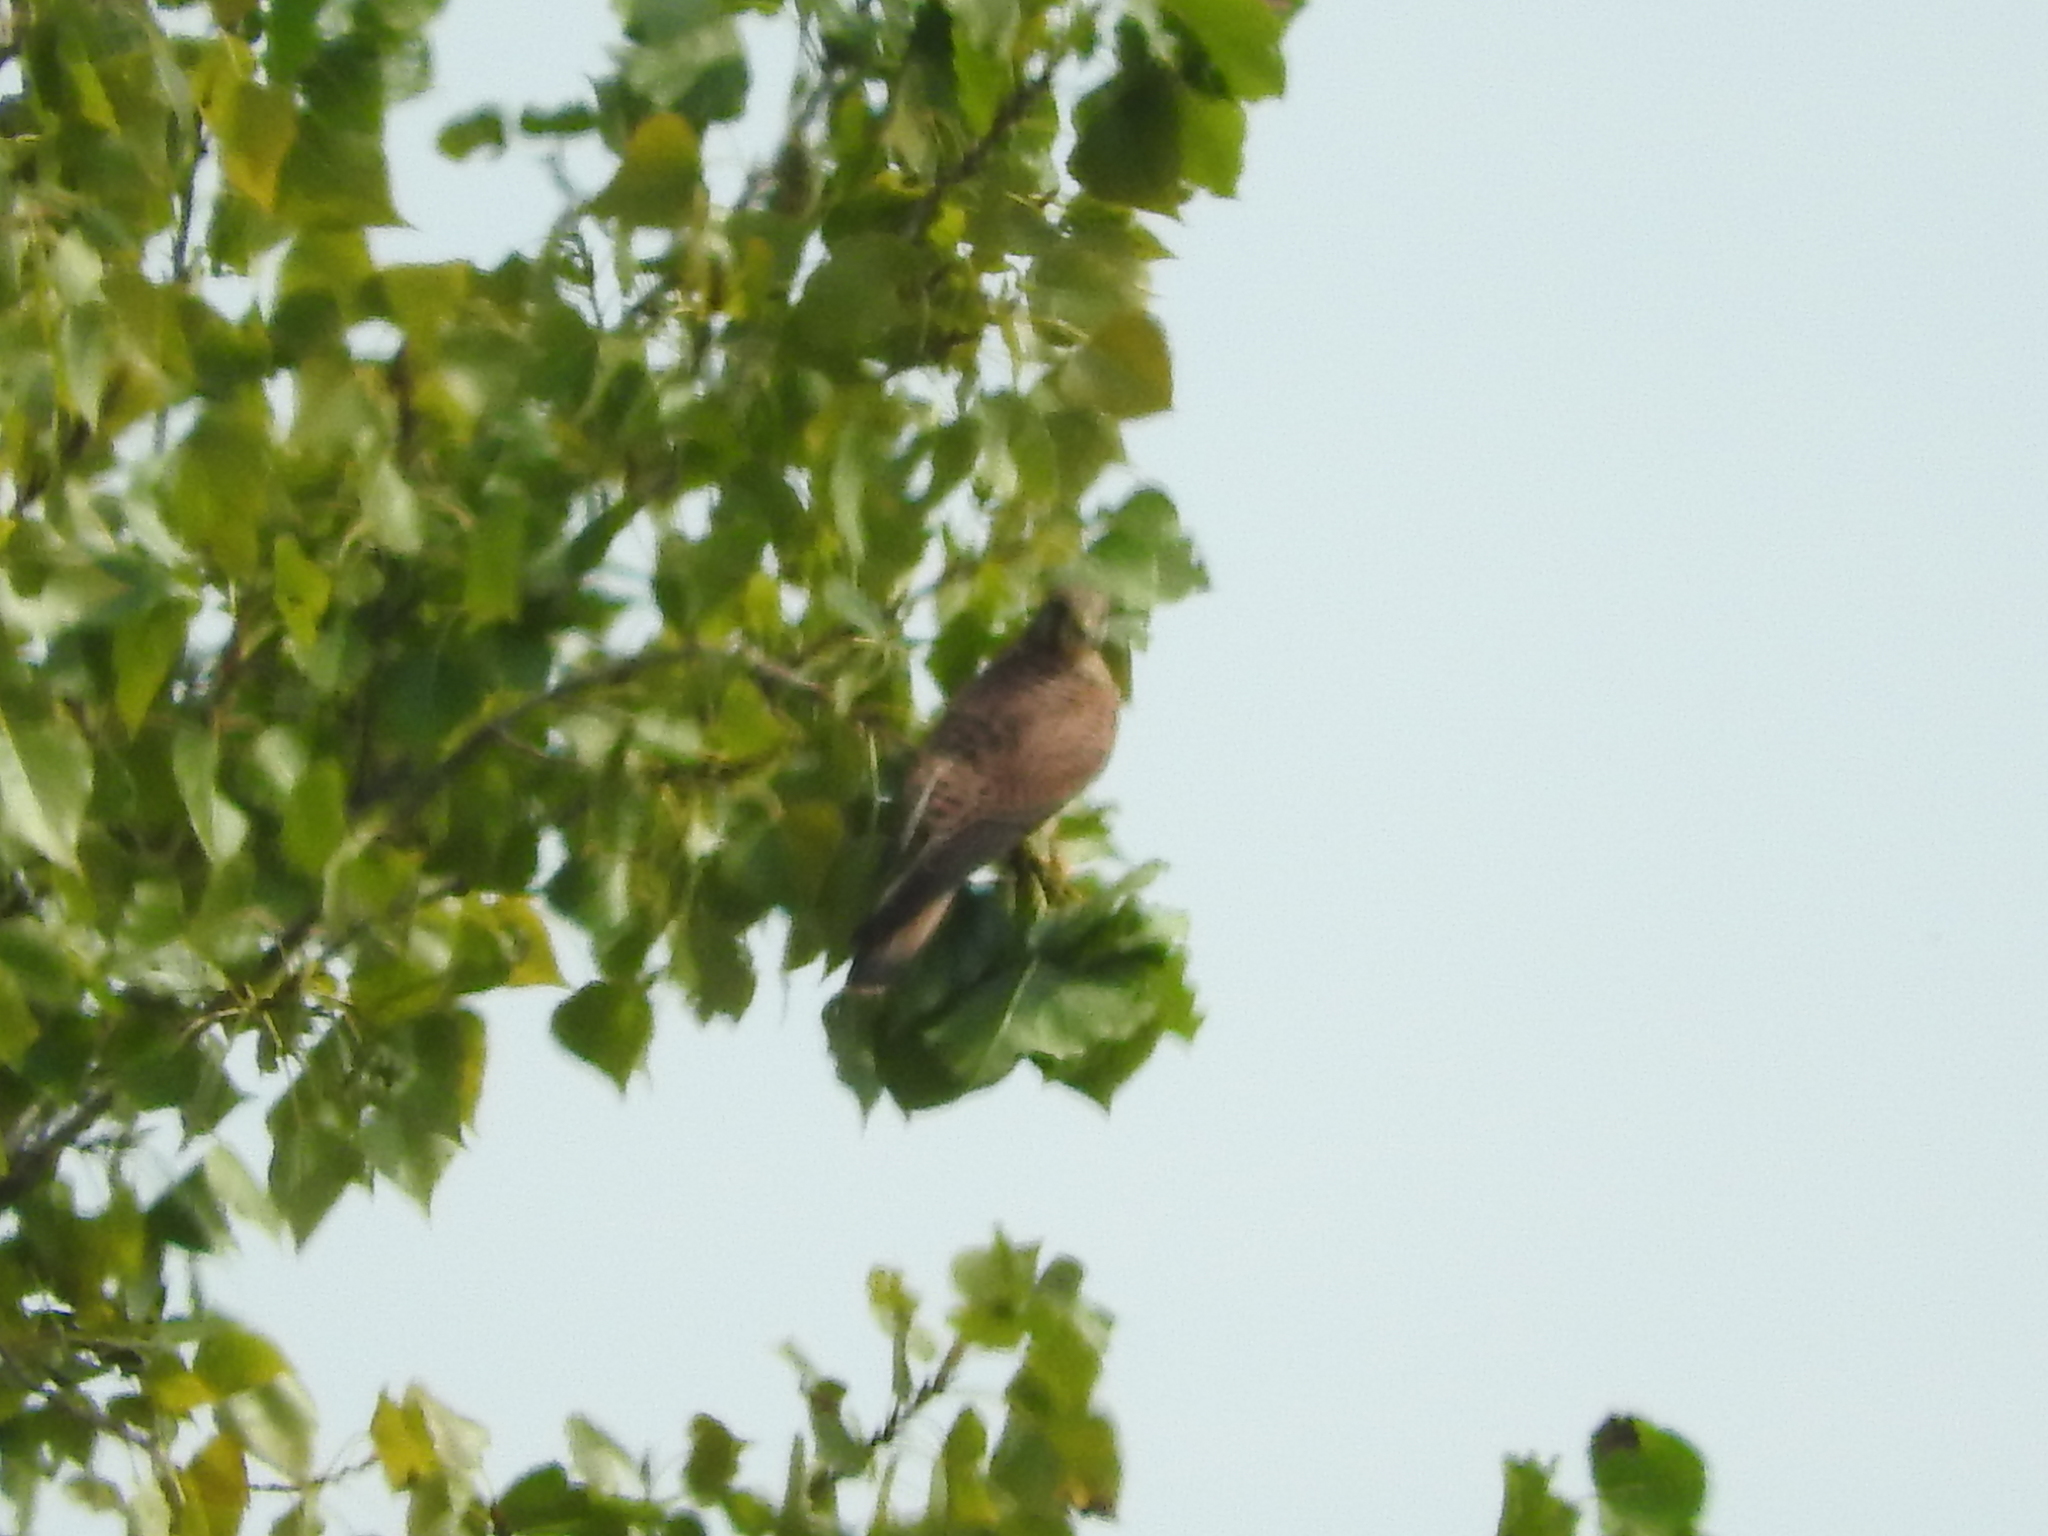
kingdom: Animalia
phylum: Chordata
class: Aves
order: Falconiformes
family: Falconidae
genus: Falco
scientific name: Falco tinnunculus
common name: Common kestrel
